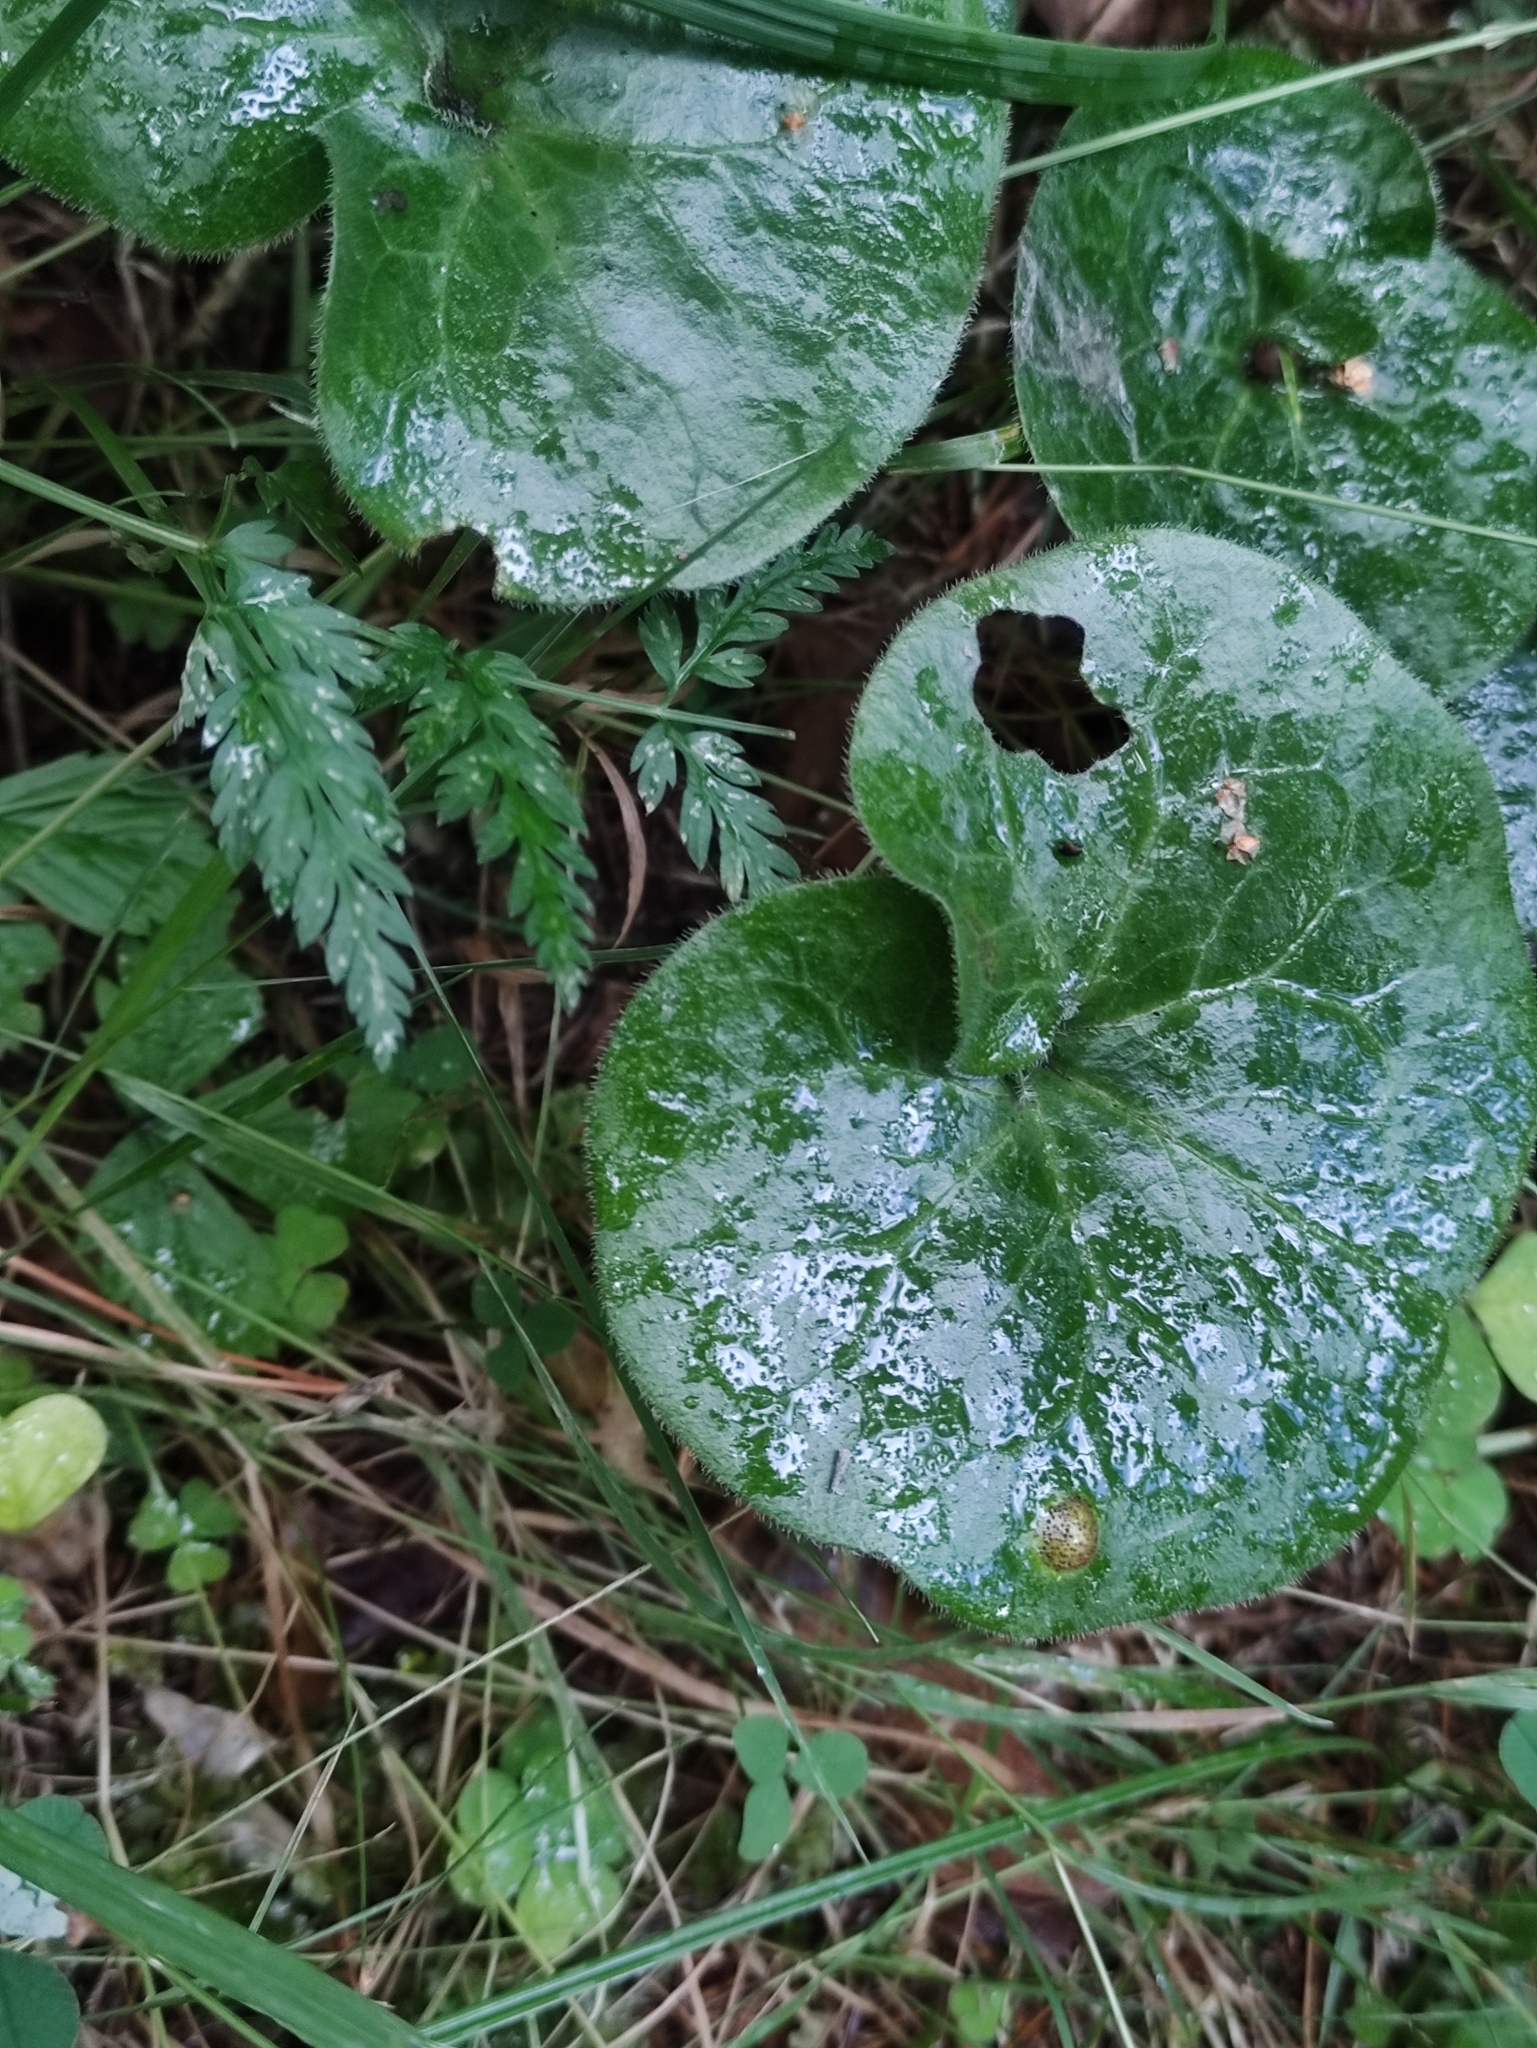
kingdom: Plantae
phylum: Tracheophyta
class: Magnoliopsida
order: Piperales
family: Aristolochiaceae
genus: Asarum
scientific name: Asarum europaeum
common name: Asarabacca
